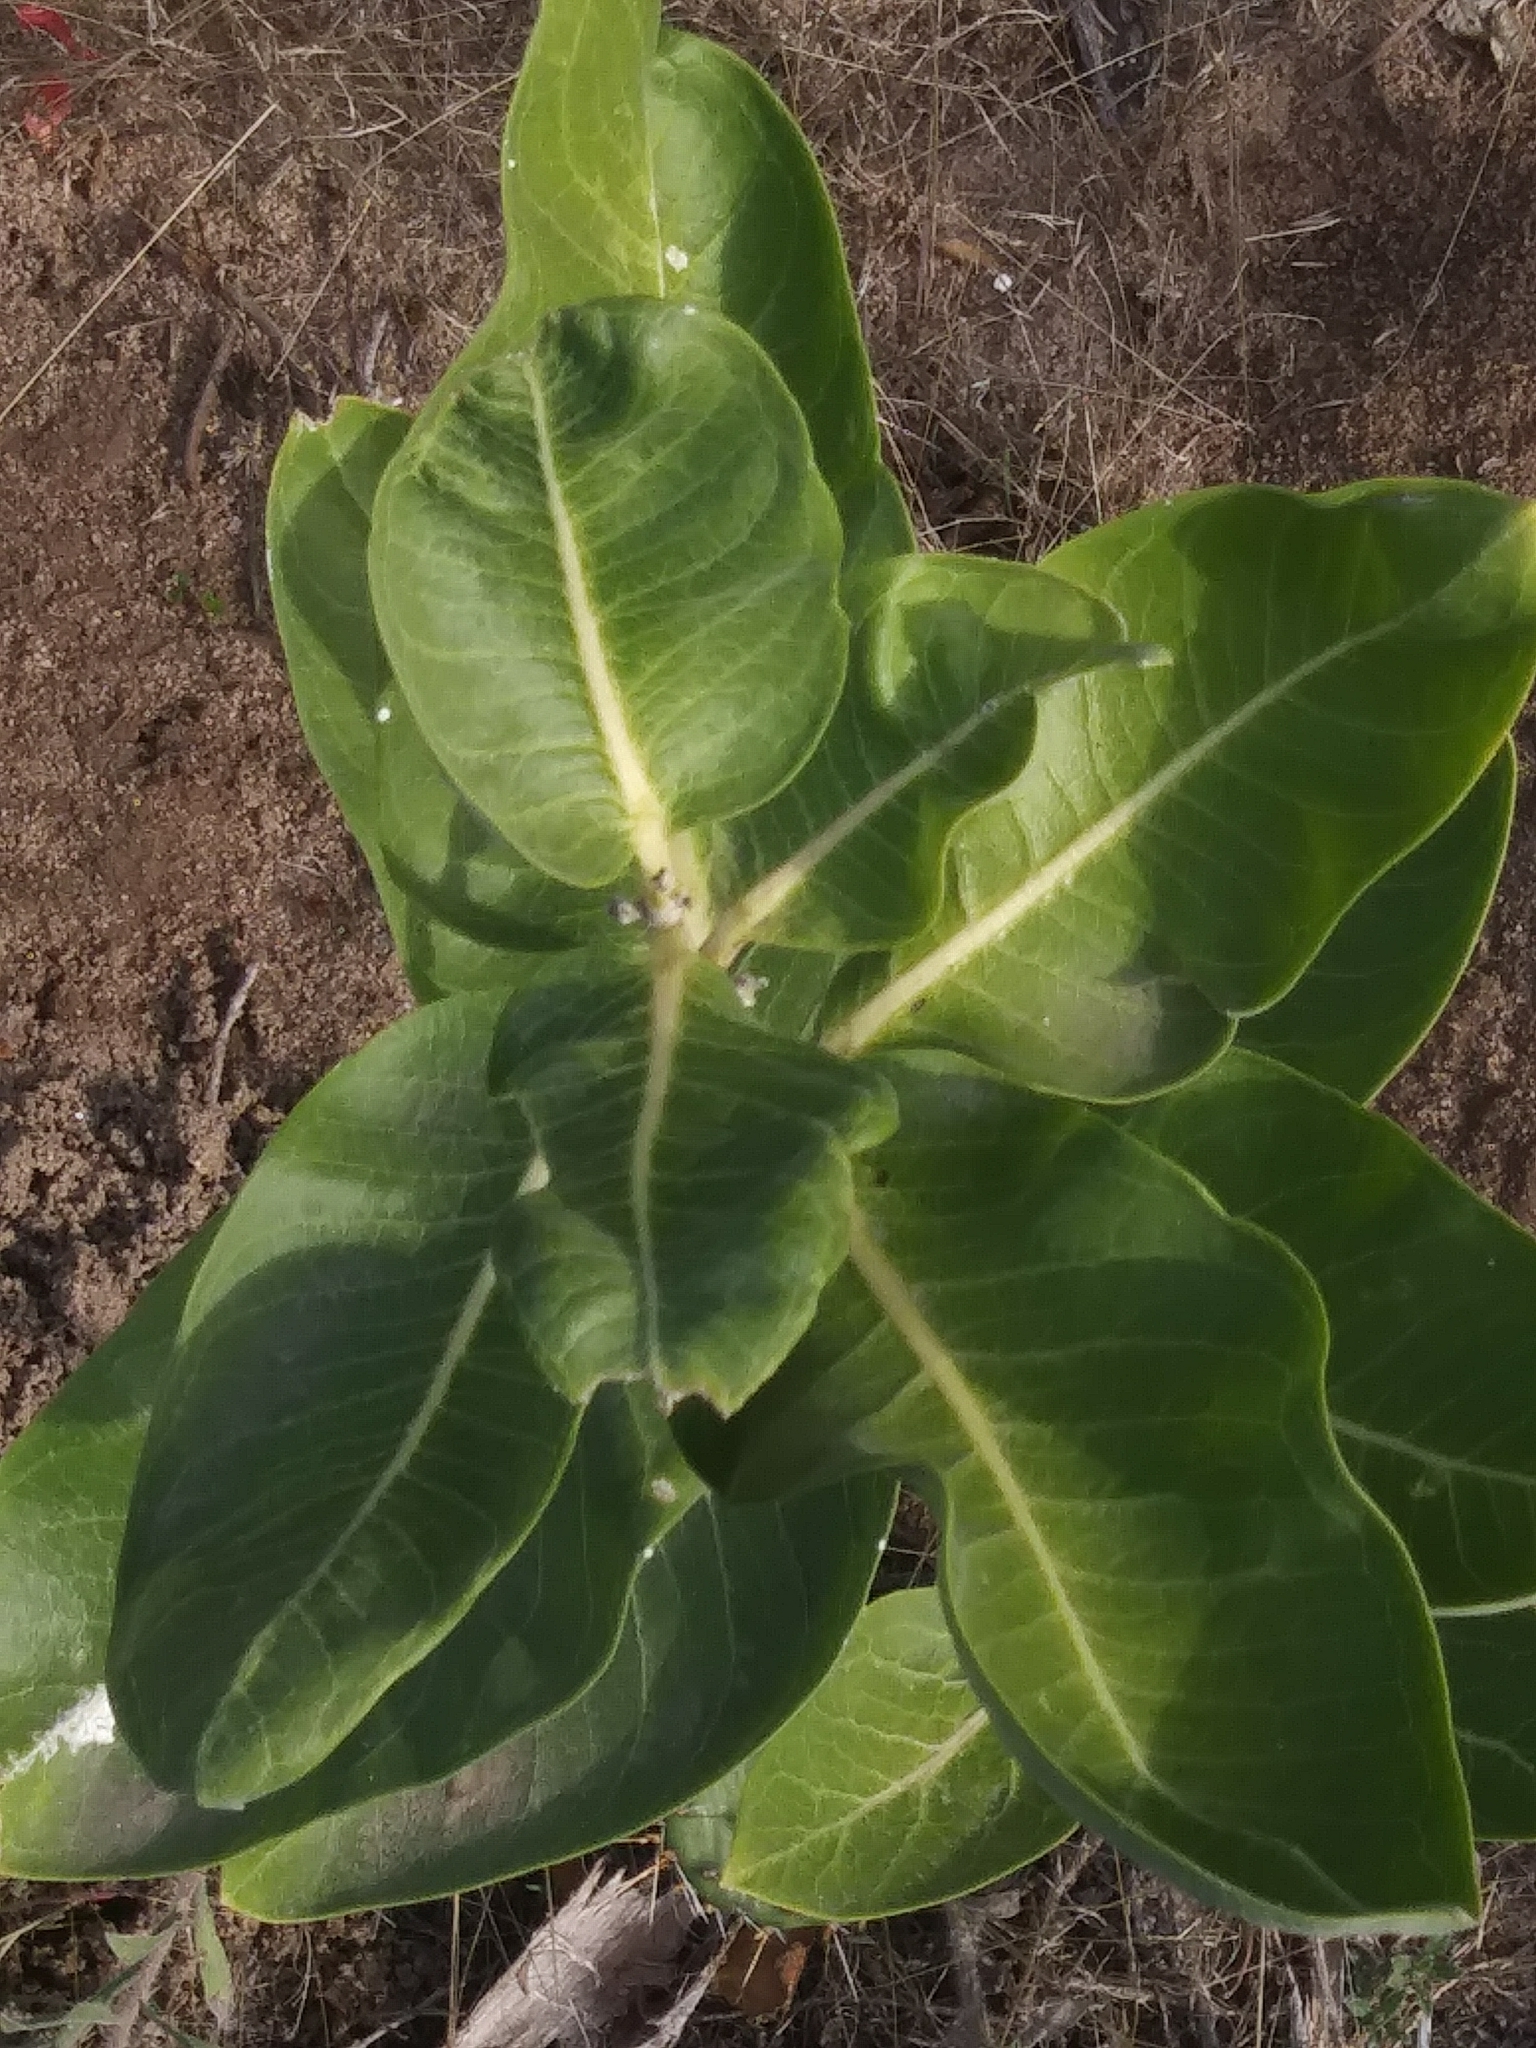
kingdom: Plantae
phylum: Tracheophyta
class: Magnoliopsida
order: Gentianales
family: Apocynaceae
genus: Asclepias
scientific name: Asclepias speciosa
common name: Showy milkweed
